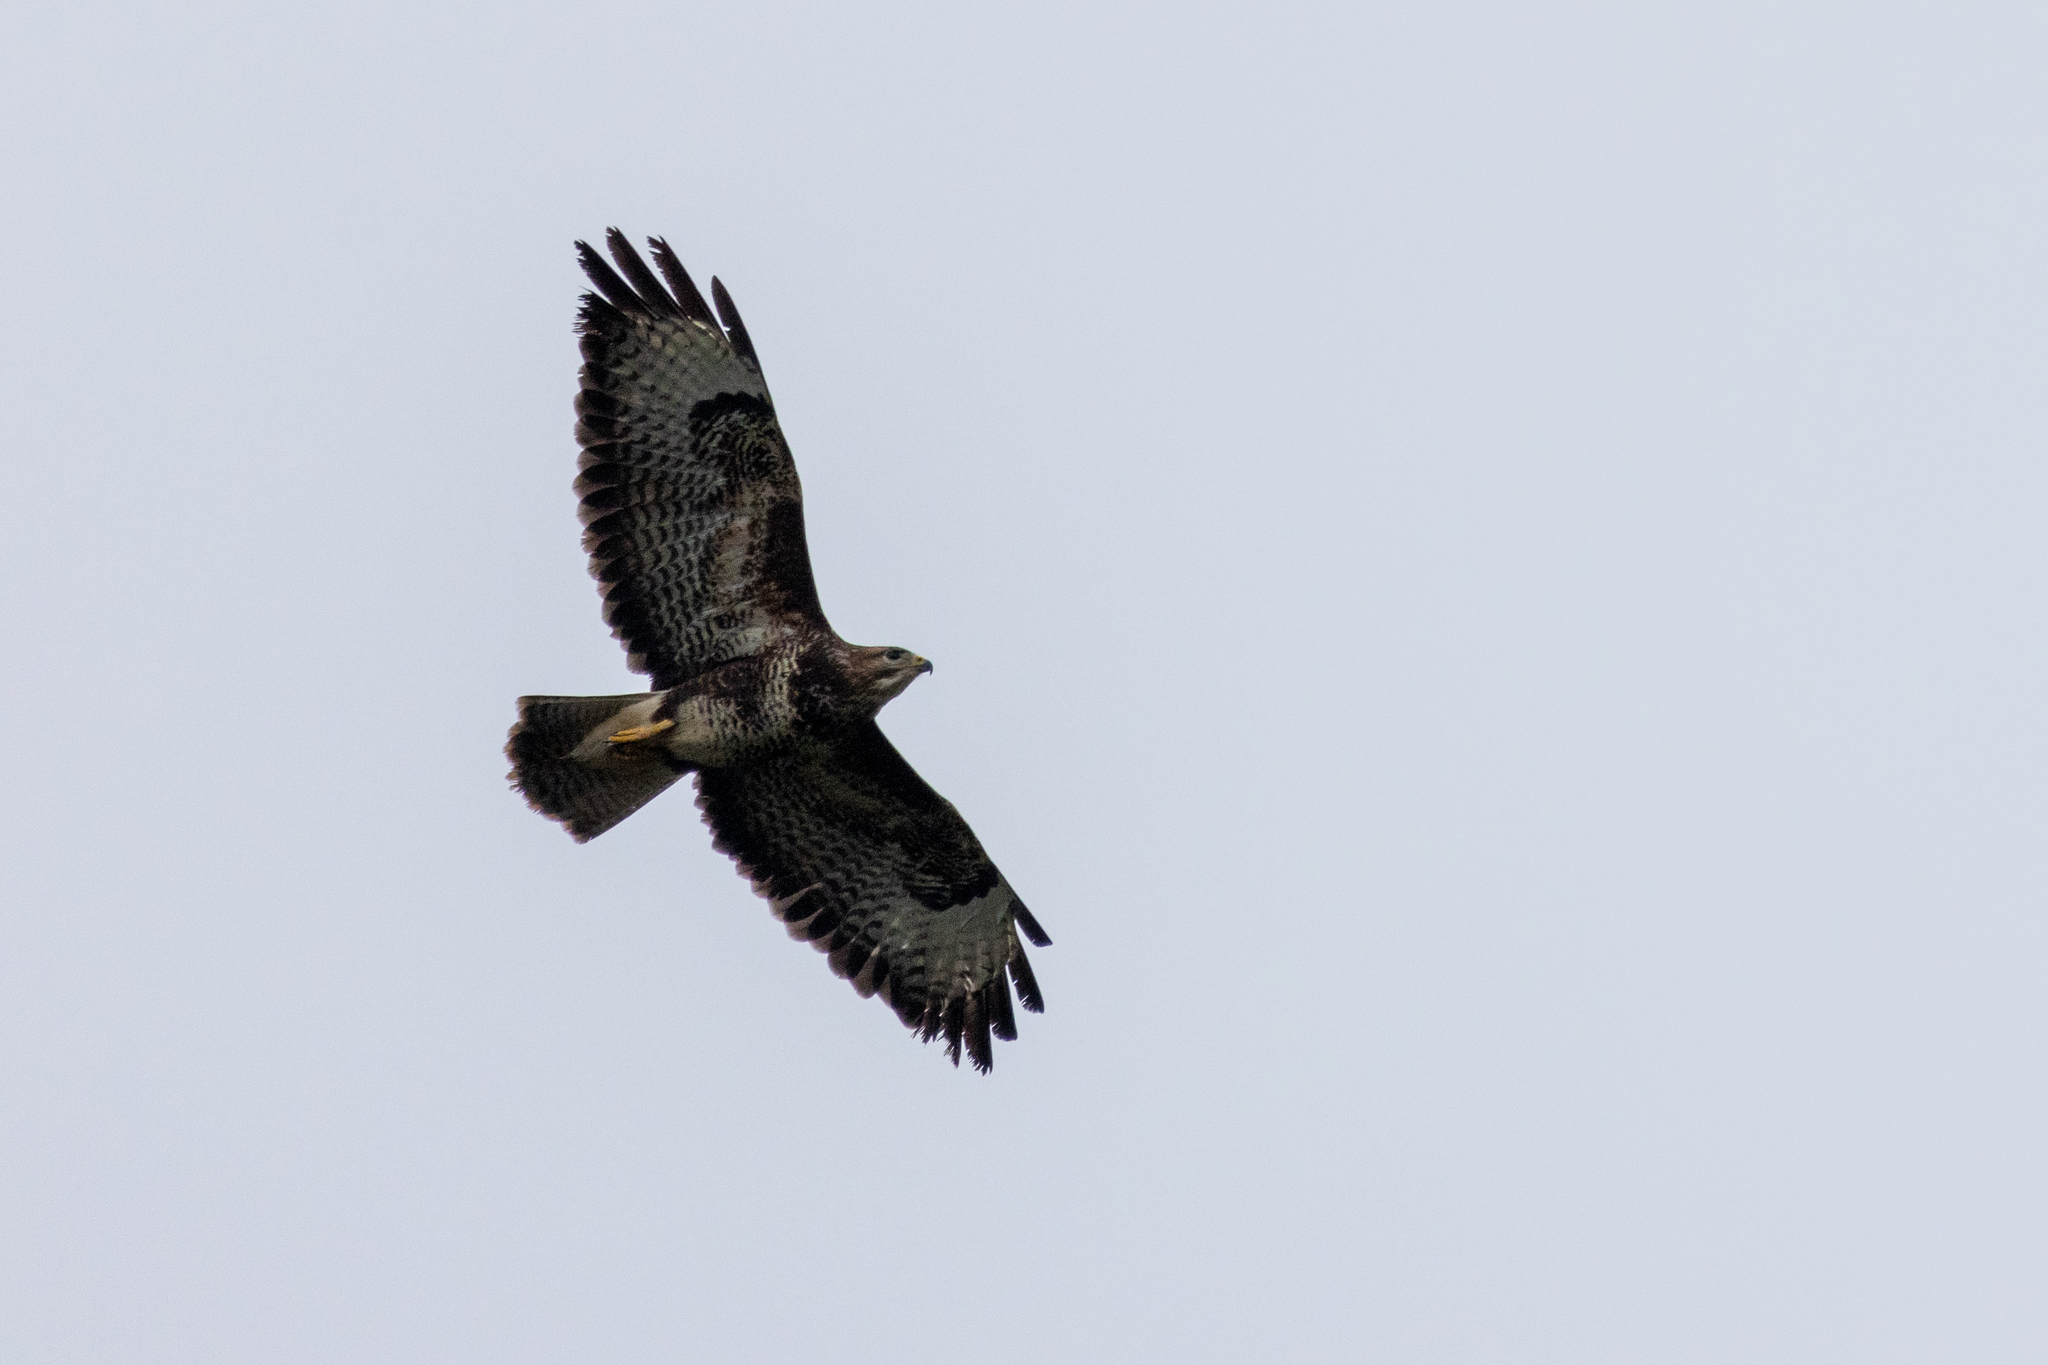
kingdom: Animalia
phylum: Chordata
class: Aves
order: Accipitriformes
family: Accipitridae
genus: Buteo
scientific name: Buteo buteo
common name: Common buzzard
